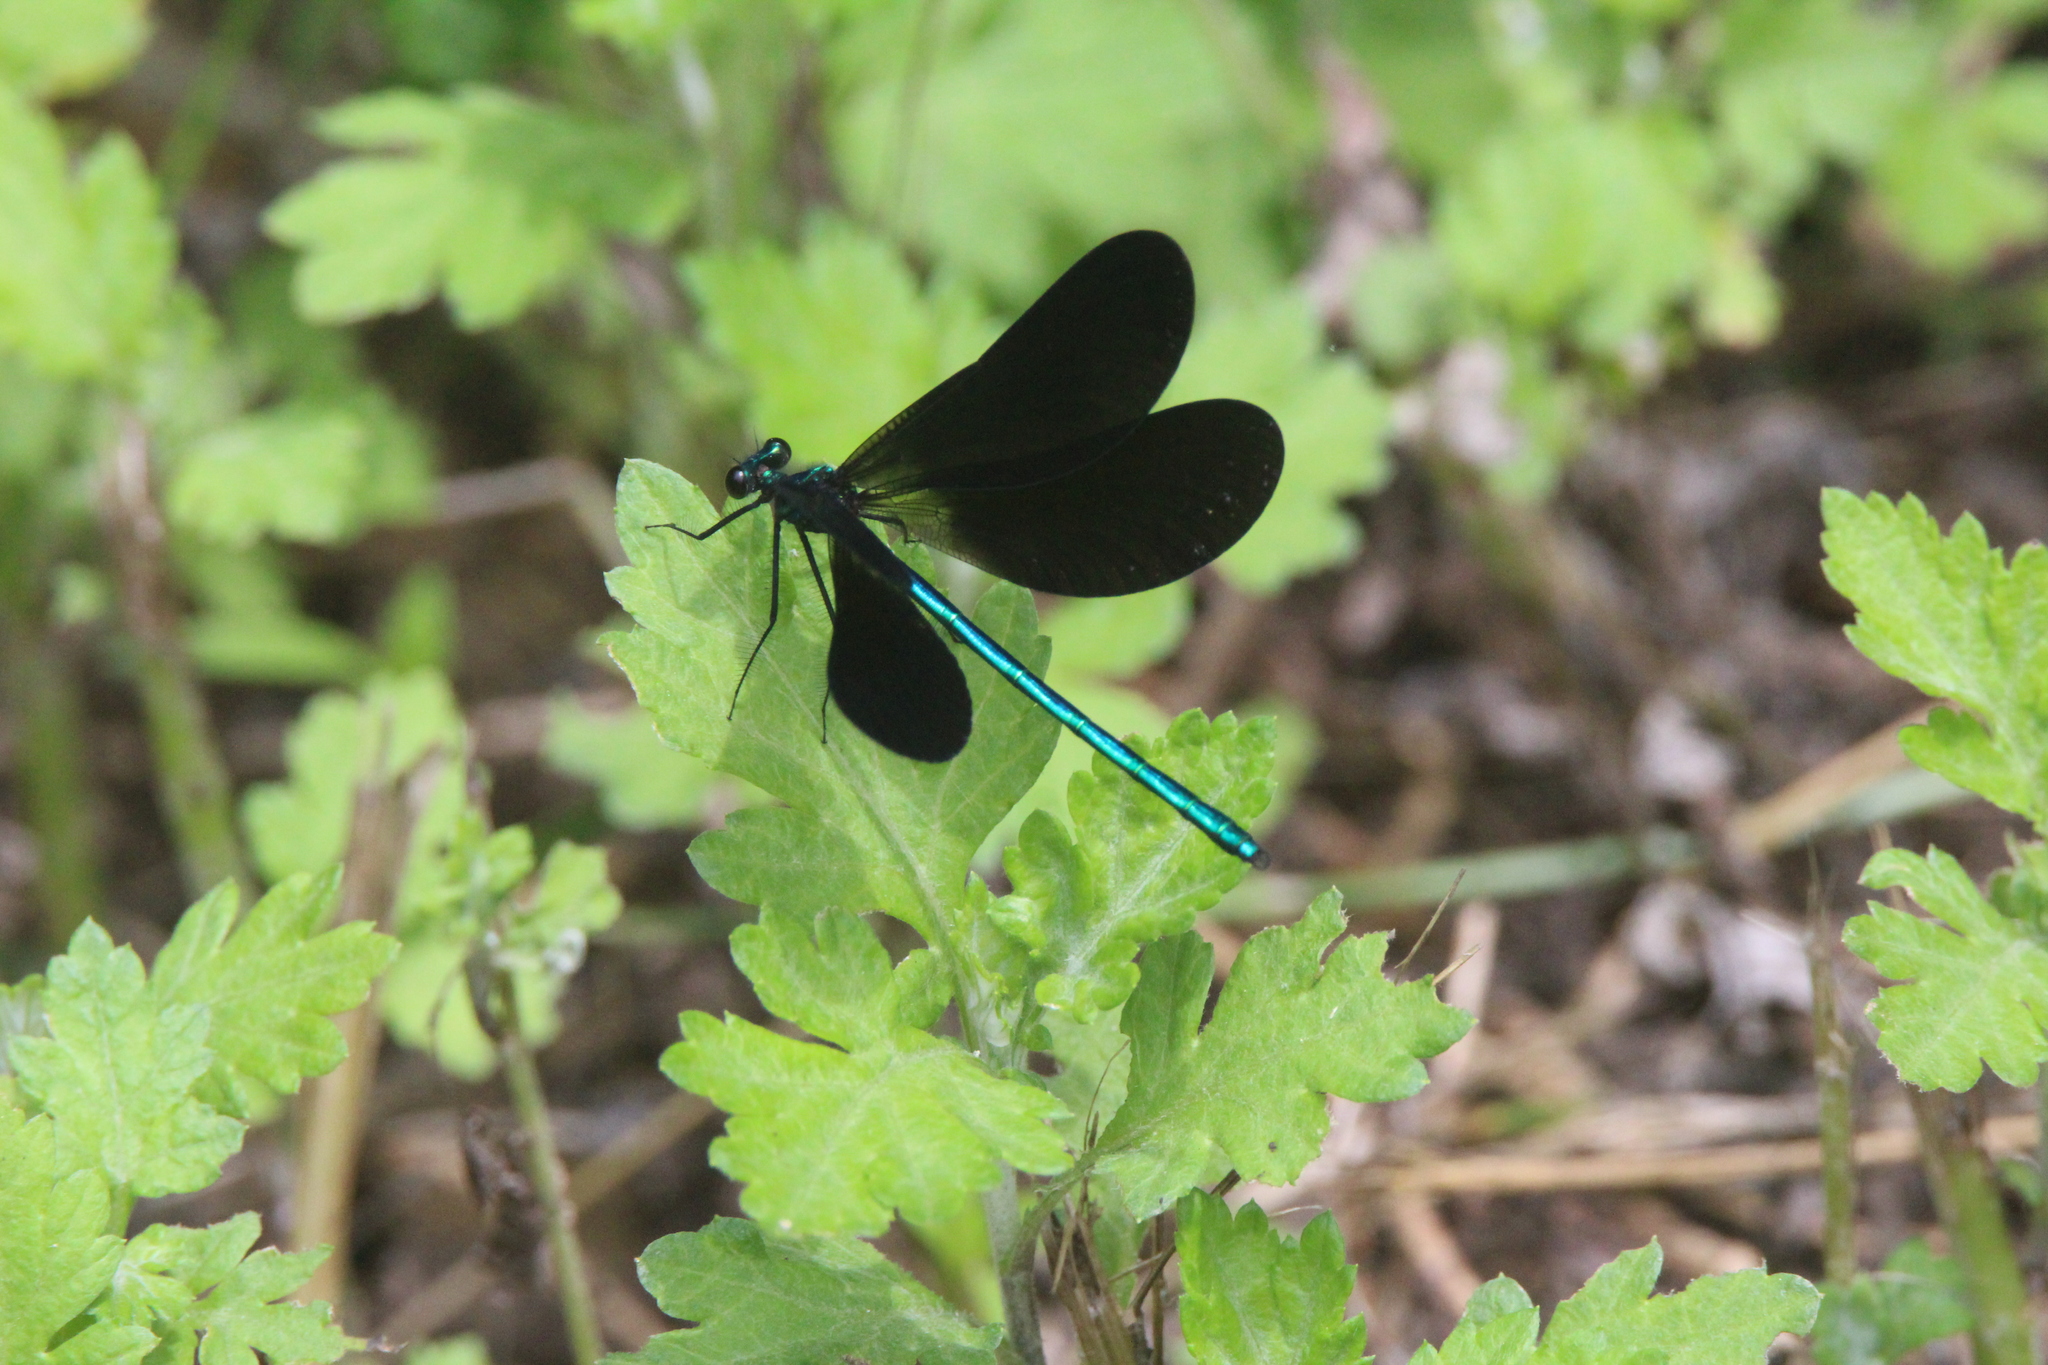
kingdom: Animalia
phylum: Arthropoda
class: Insecta
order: Odonata
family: Calopterygidae
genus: Calopteryx
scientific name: Calopteryx maculata
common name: Ebony jewelwing
